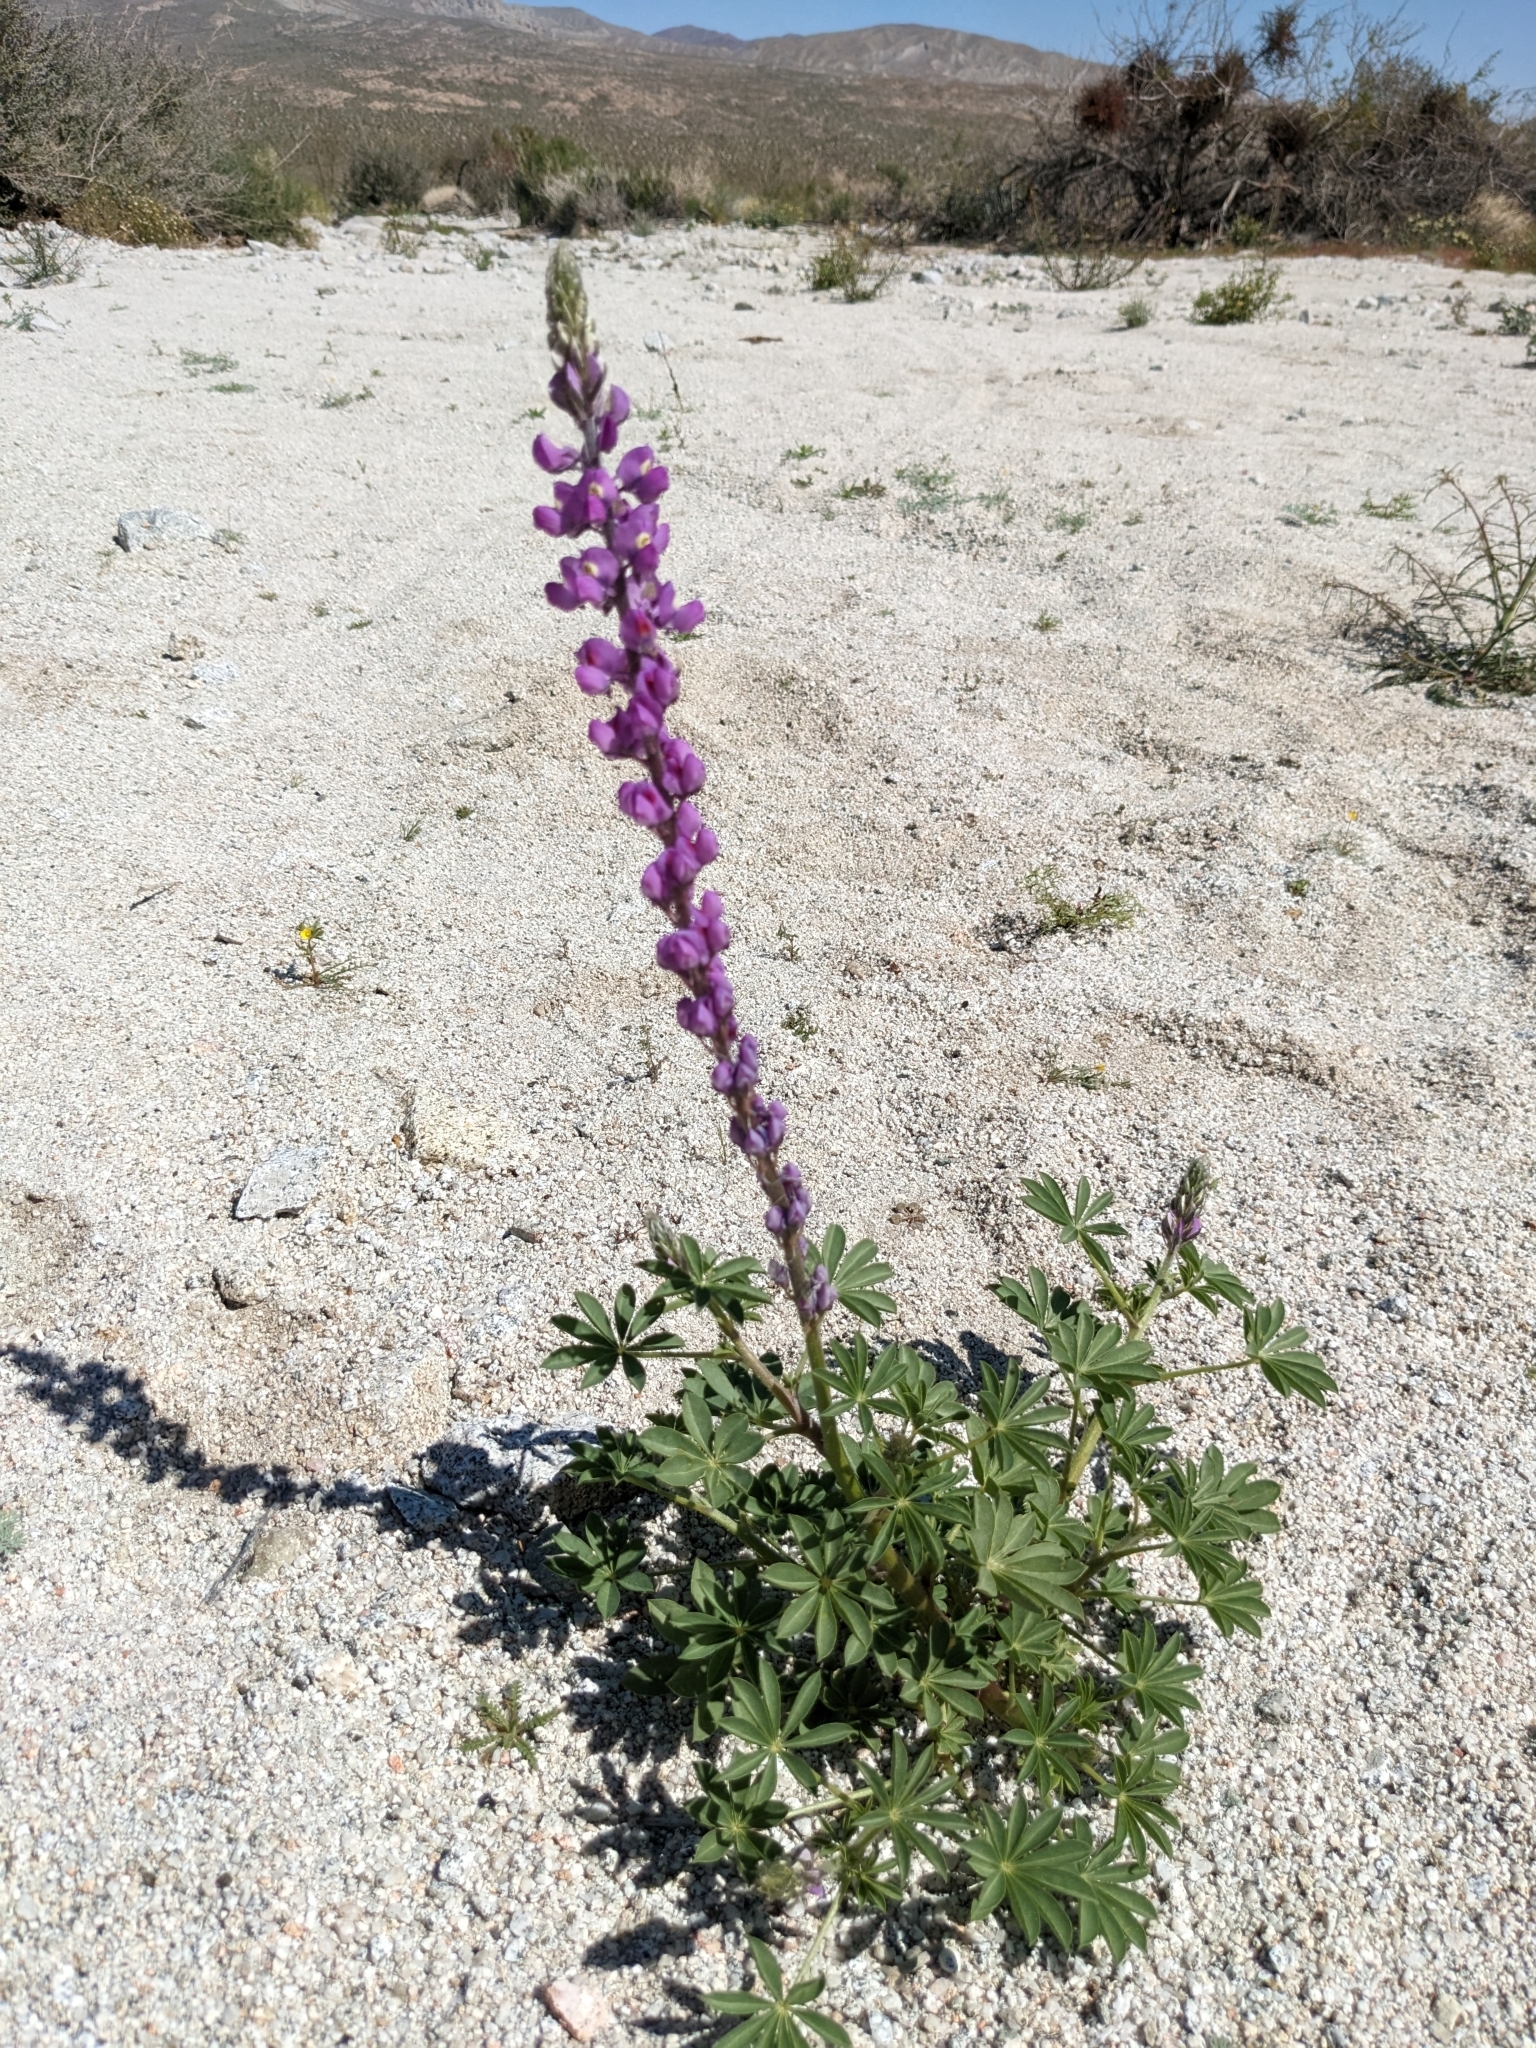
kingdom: Plantae
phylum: Tracheophyta
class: Magnoliopsida
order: Fabales
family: Fabaceae
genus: Lupinus
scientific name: Lupinus arizonicus
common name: Arizona lupine
